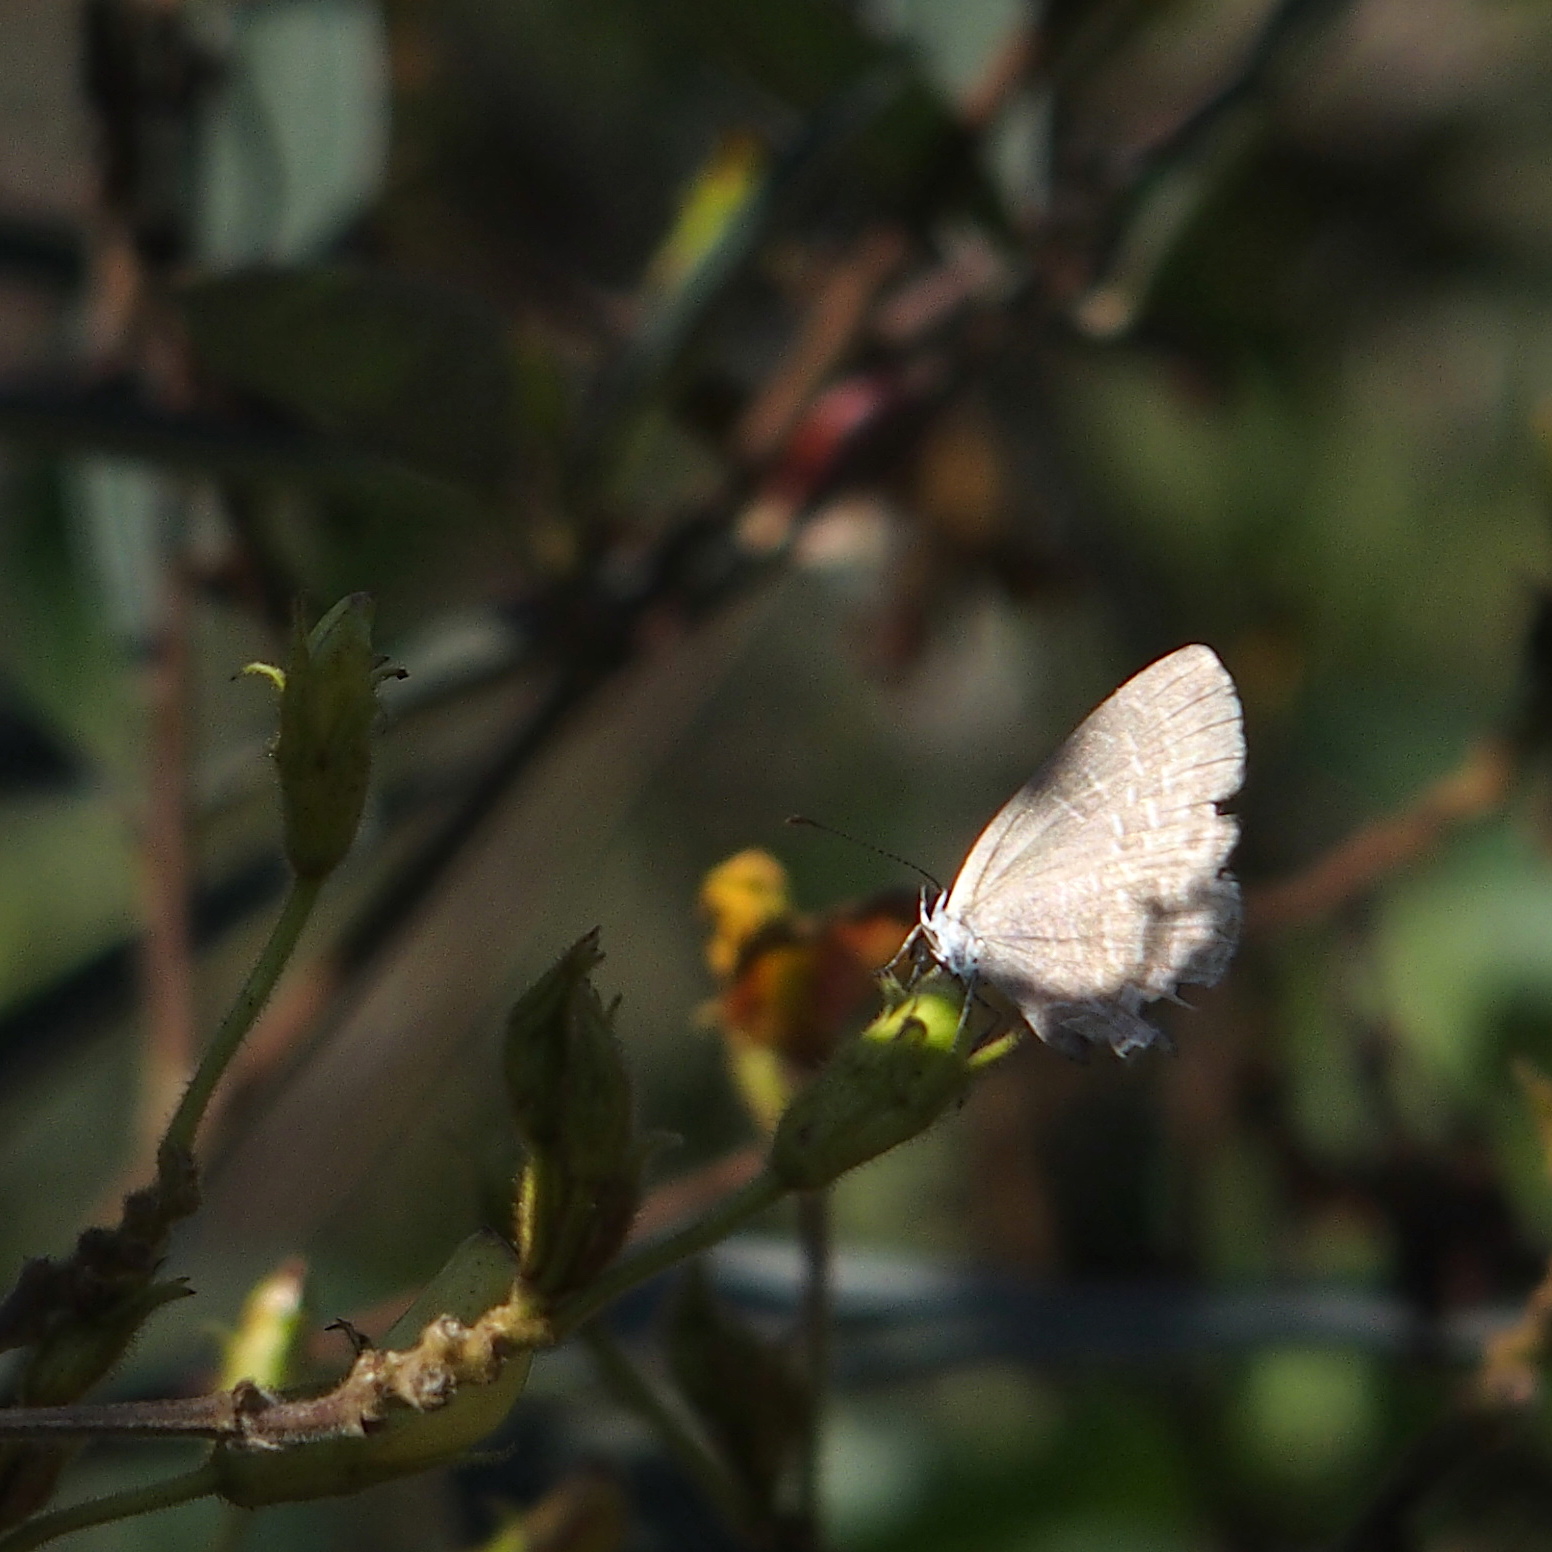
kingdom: Animalia
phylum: Arthropoda
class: Insecta
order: Lepidoptera
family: Lycaenidae
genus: Jamides
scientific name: Jamides bochus
